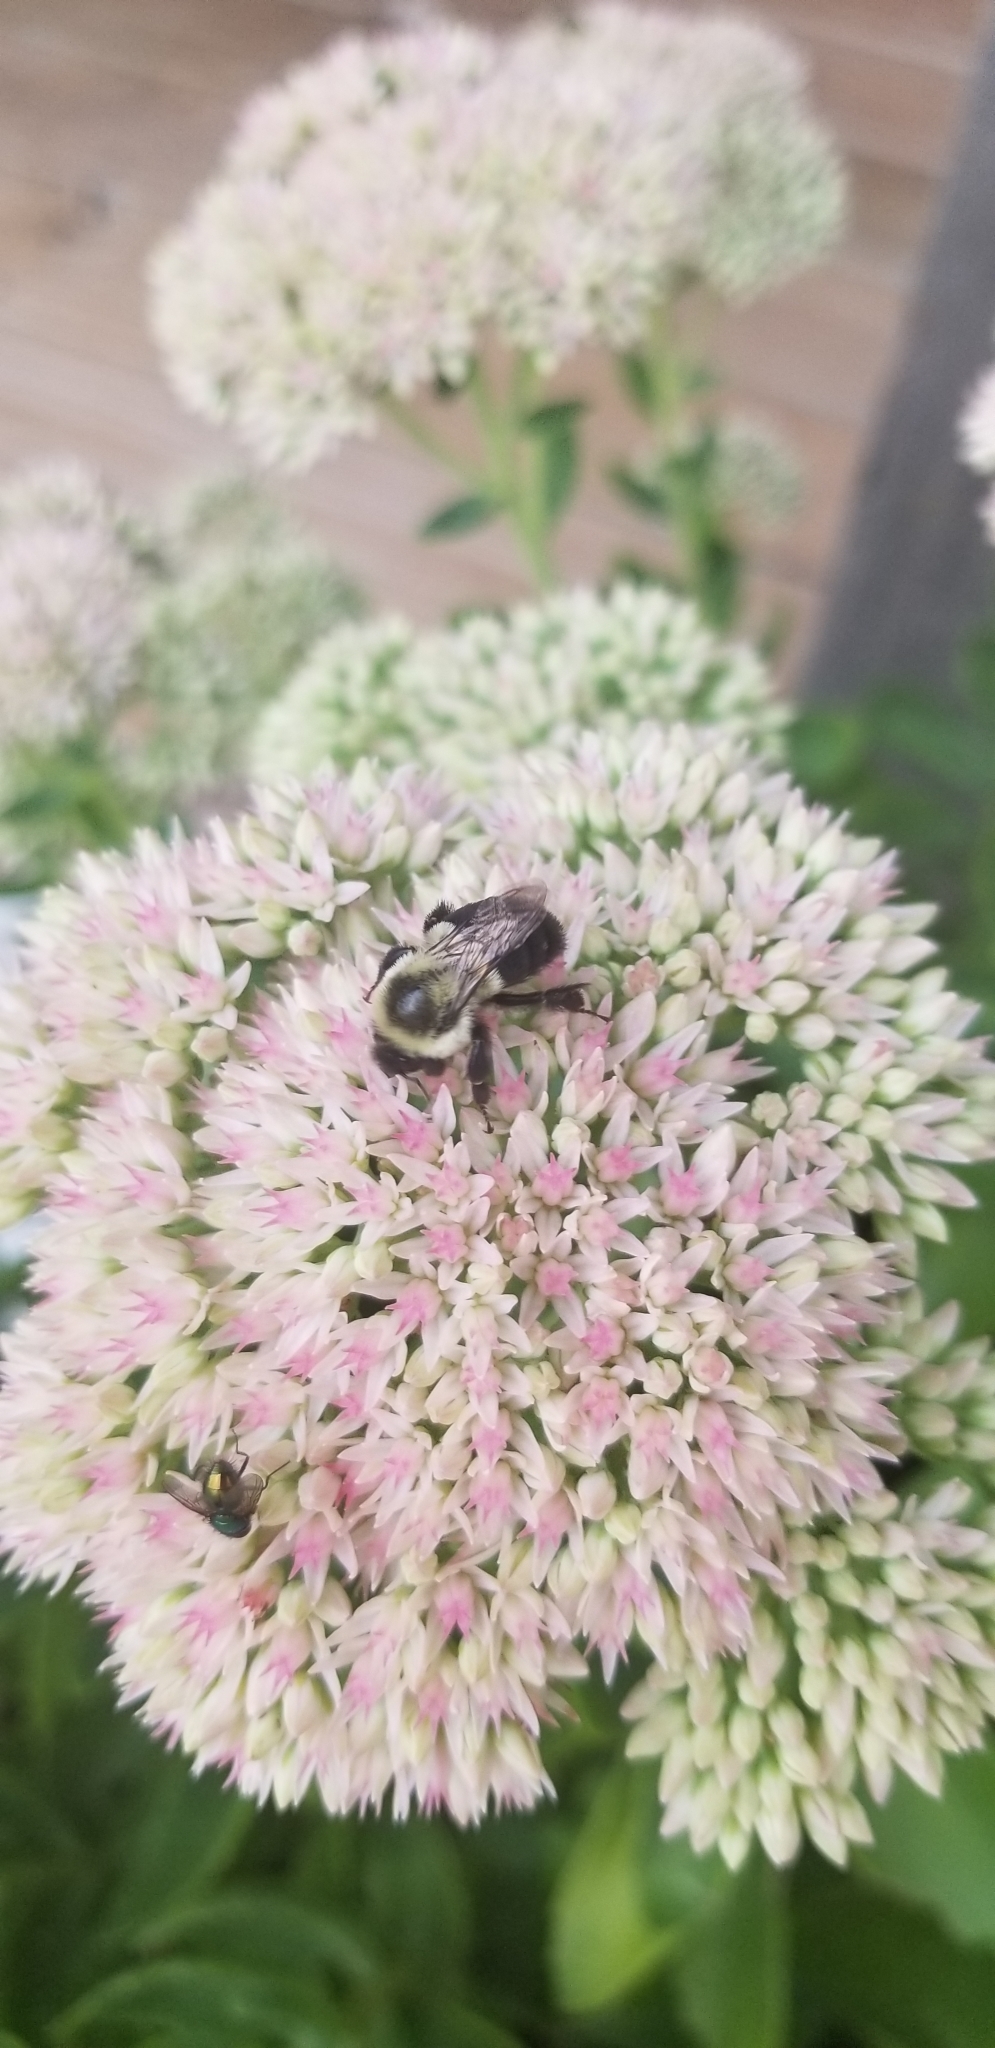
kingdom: Animalia
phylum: Arthropoda
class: Insecta
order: Hymenoptera
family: Apidae
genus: Bombus
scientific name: Bombus impatiens
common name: Common eastern bumble bee
